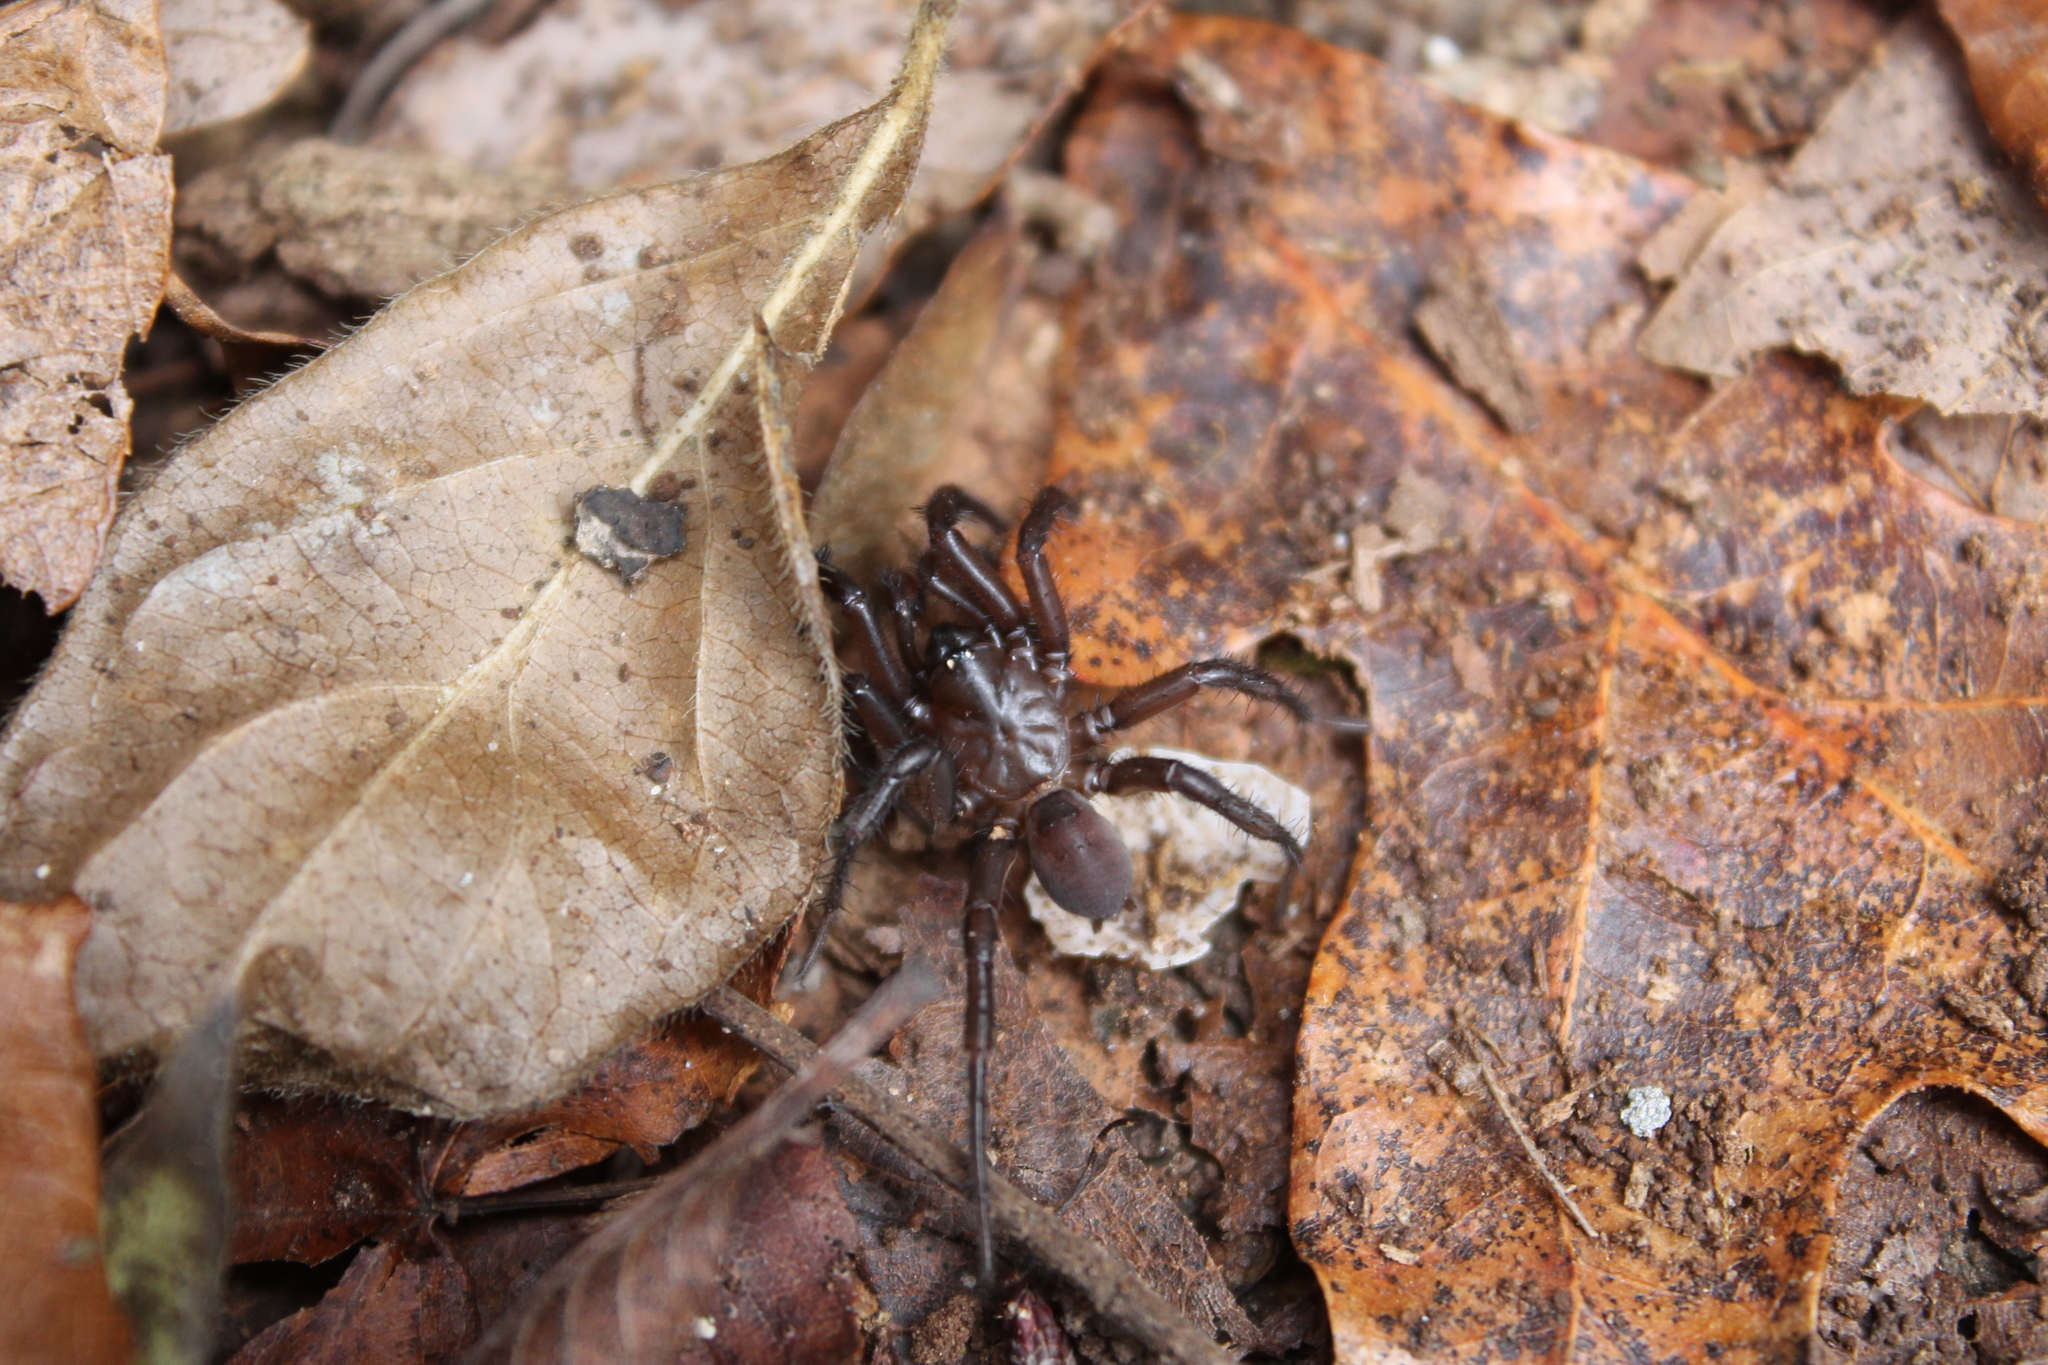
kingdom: Animalia
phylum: Arthropoda
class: Arachnida
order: Araneae
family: Antrodiaetidae
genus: Antrodiaetus
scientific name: Antrodiaetus unicolor
